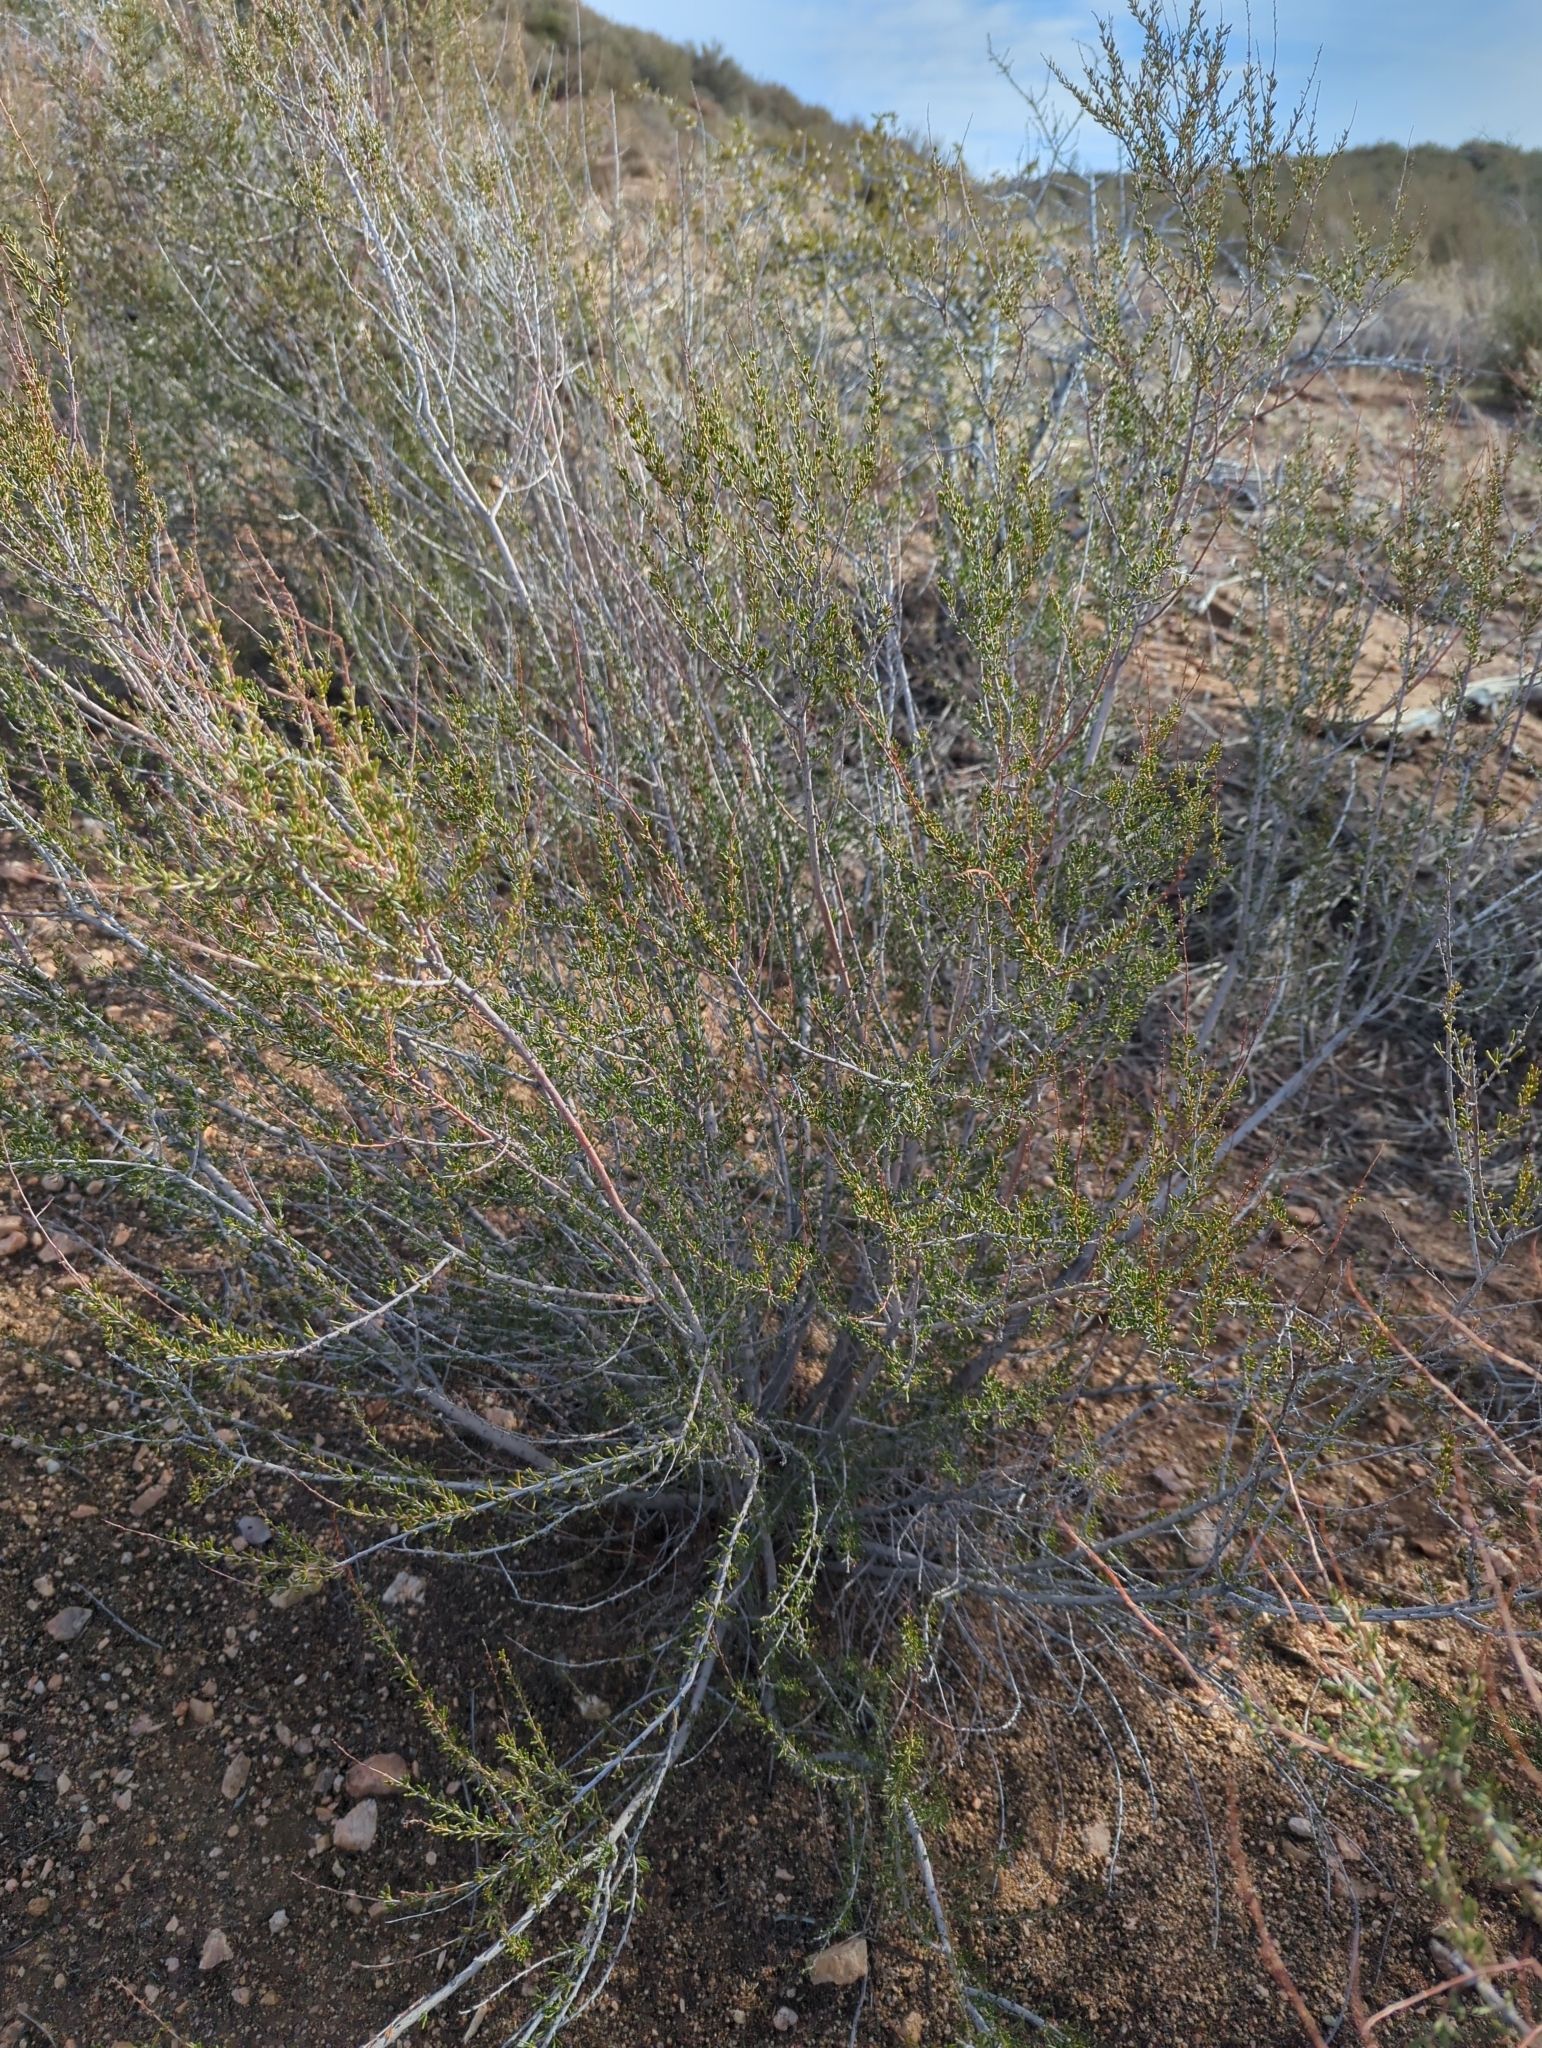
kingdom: Plantae
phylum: Tracheophyta
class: Magnoliopsida
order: Rosales
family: Rosaceae
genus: Adenostoma
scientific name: Adenostoma fasciculatum
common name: Chamise
